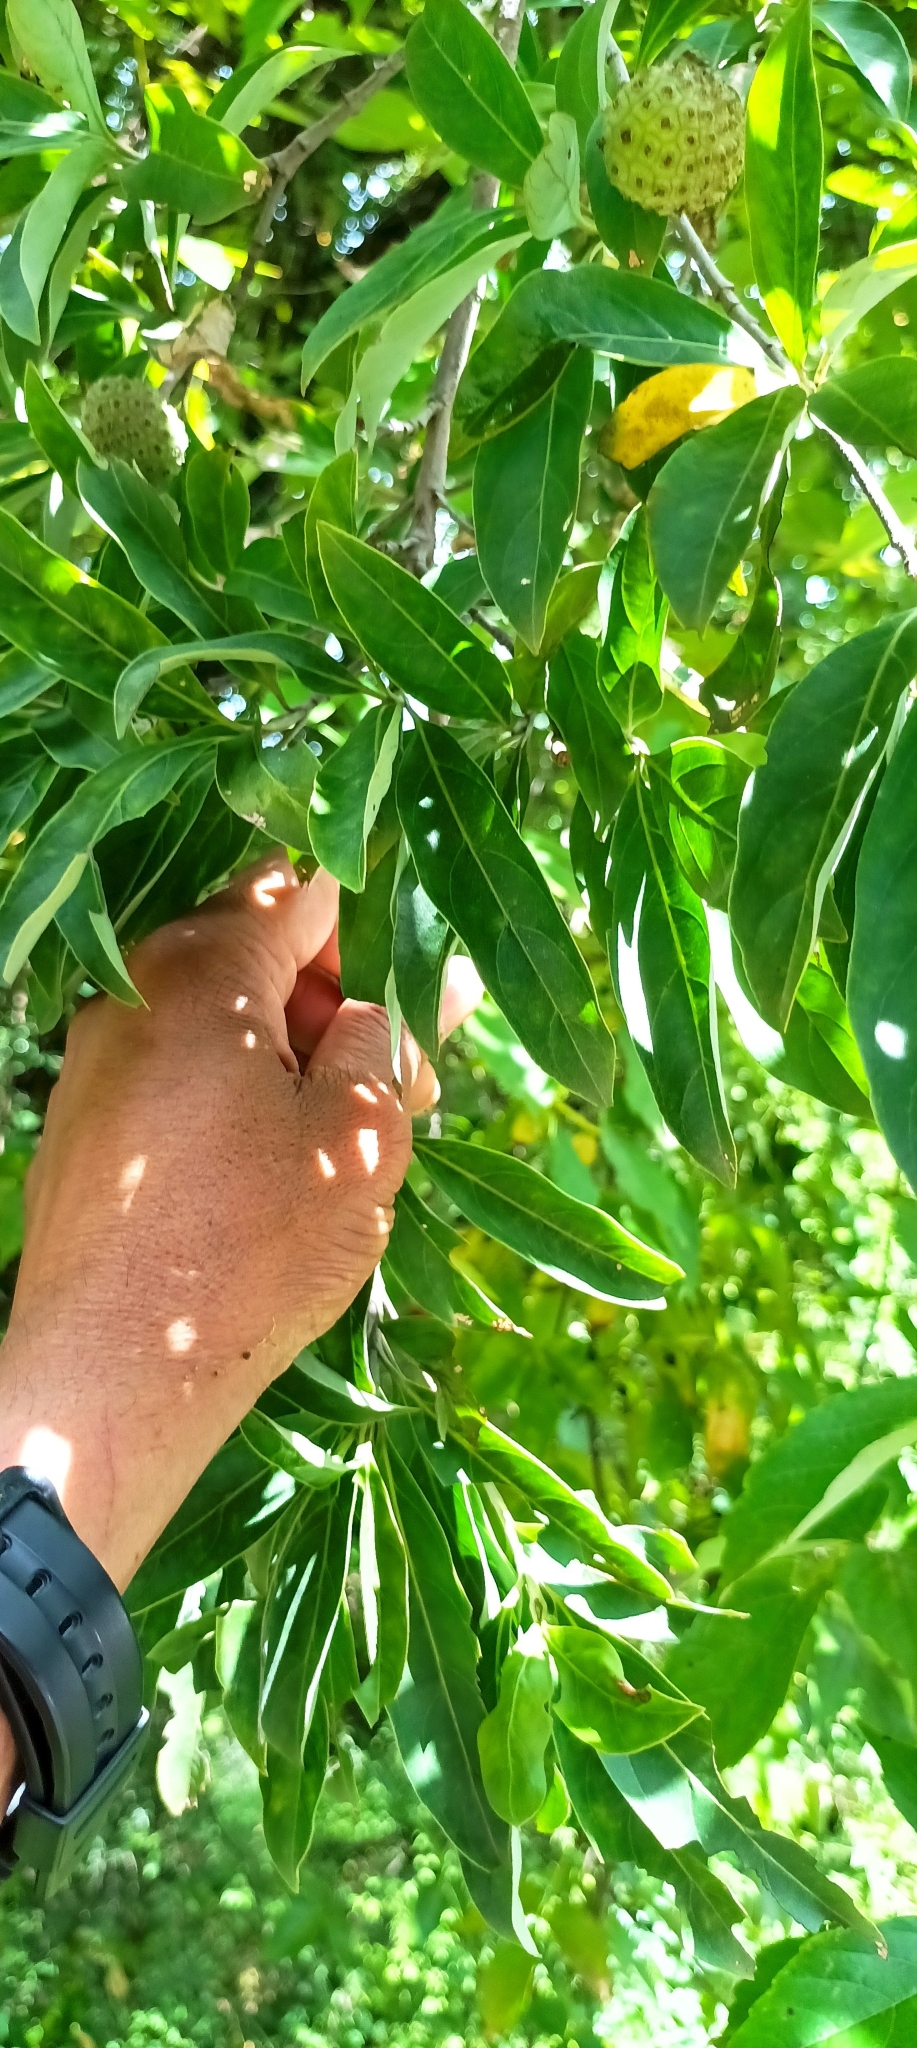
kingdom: Plantae
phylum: Tracheophyta
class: Magnoliopsida
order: Cornales
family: Cornaceae
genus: Cornus
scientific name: Cornus capitata
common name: Bentham's cornel
